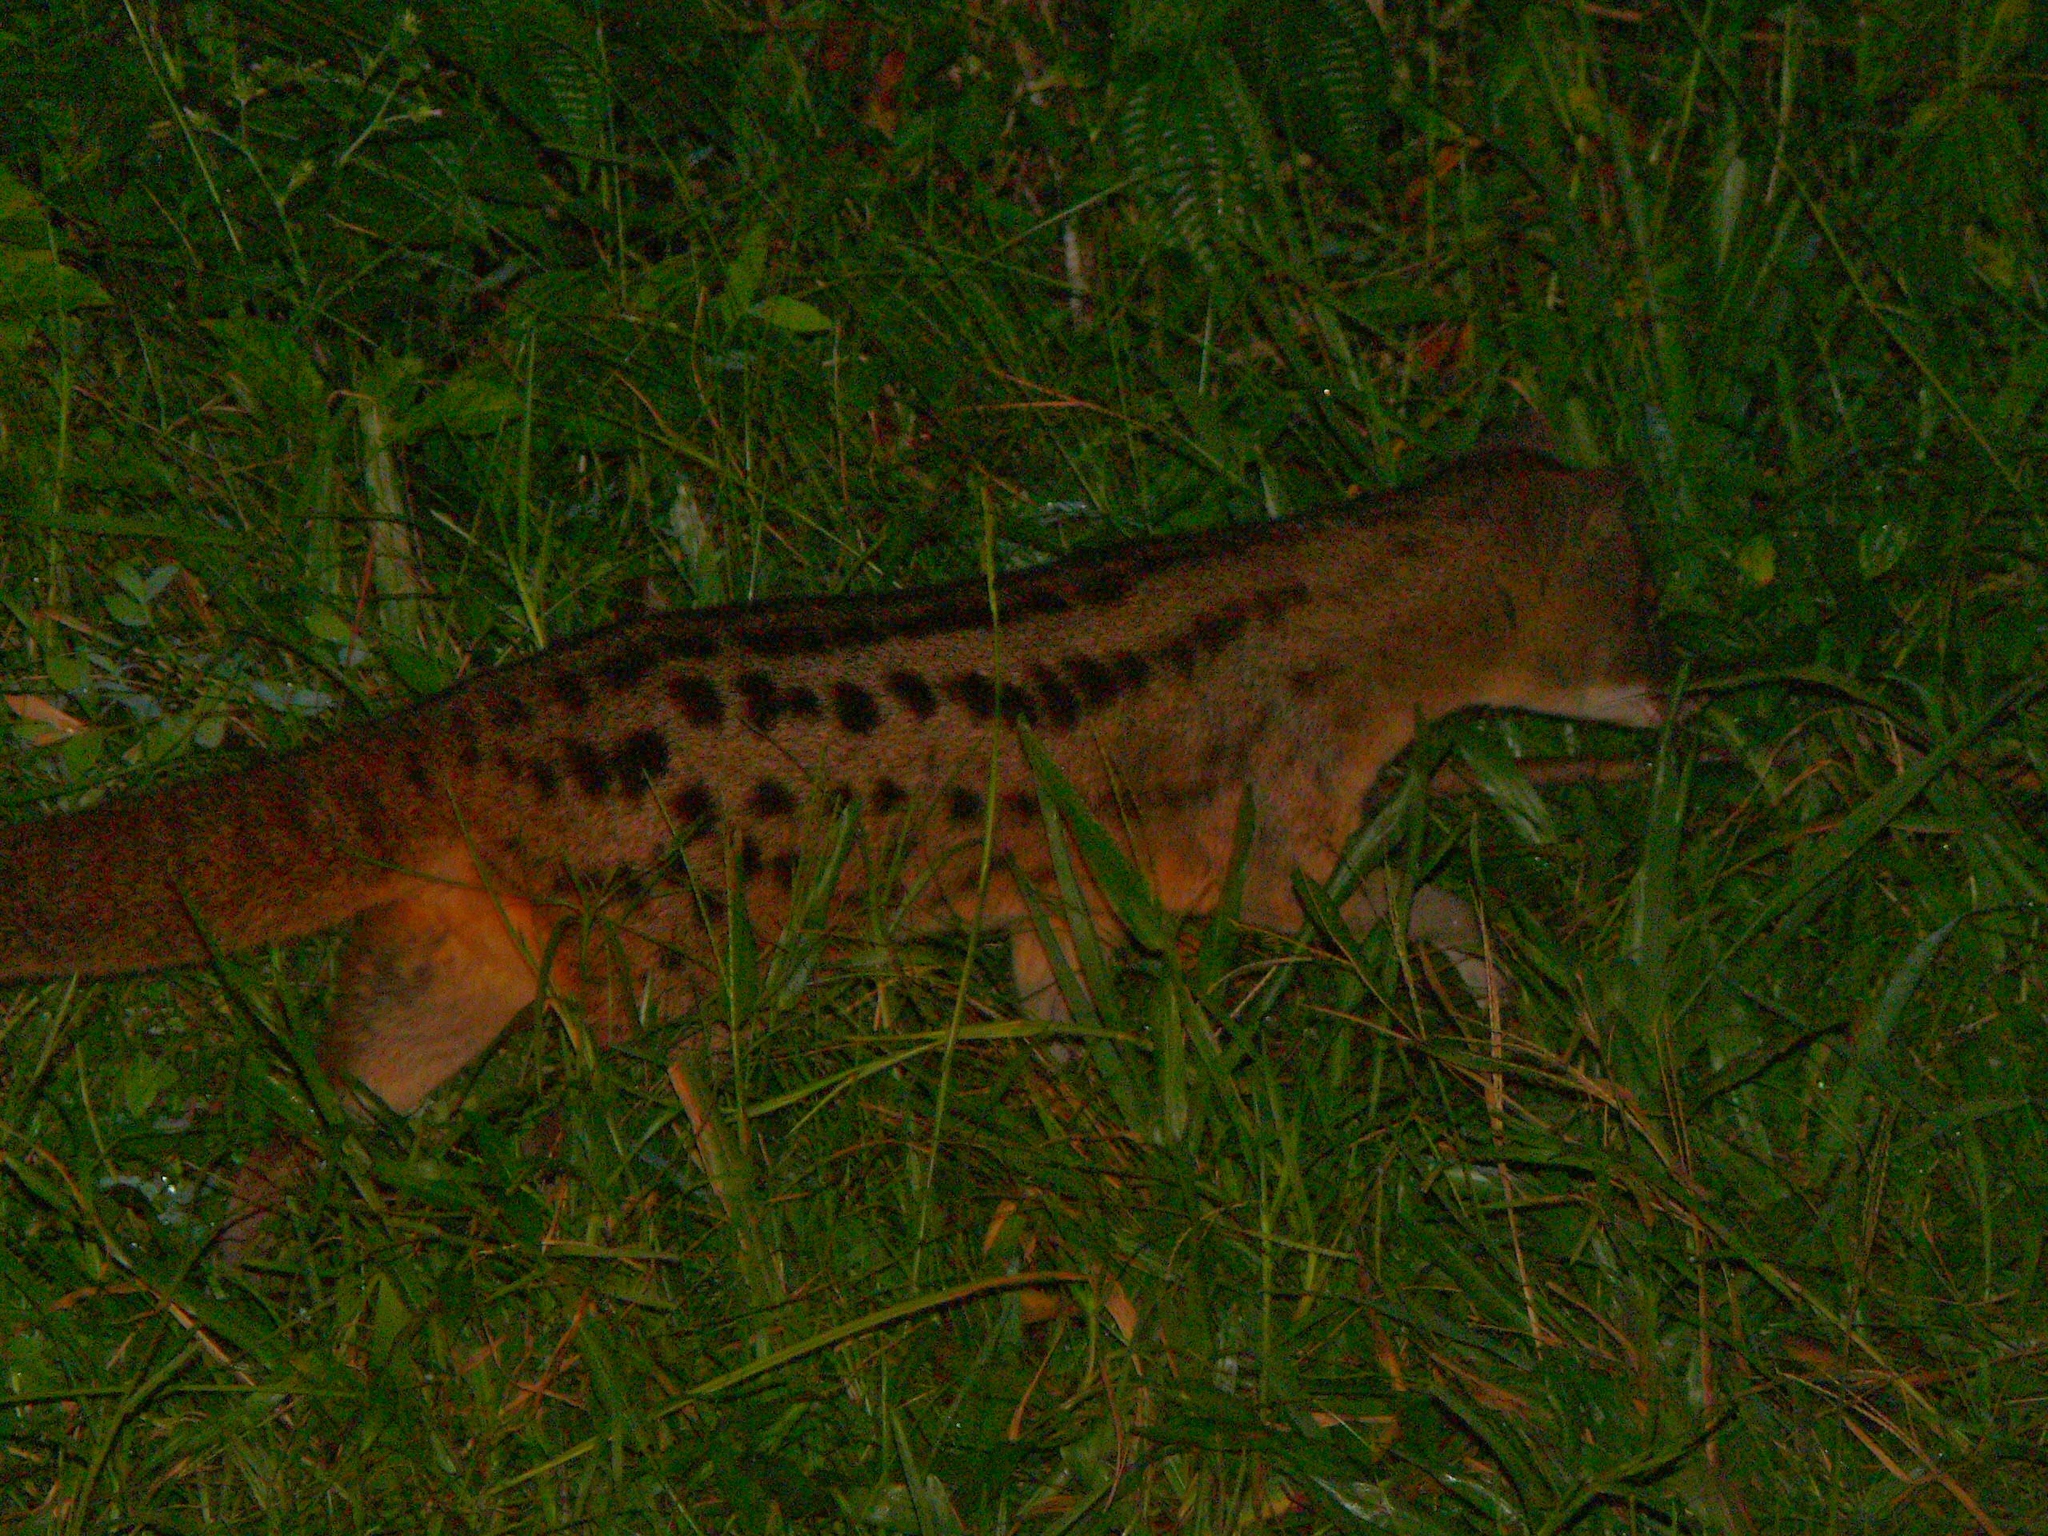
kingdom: Animalia
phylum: Chordata
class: Mammalia
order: Carnivora
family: Eupleridae
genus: Fossa
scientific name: Fossa fossana
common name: Malagasy civet
